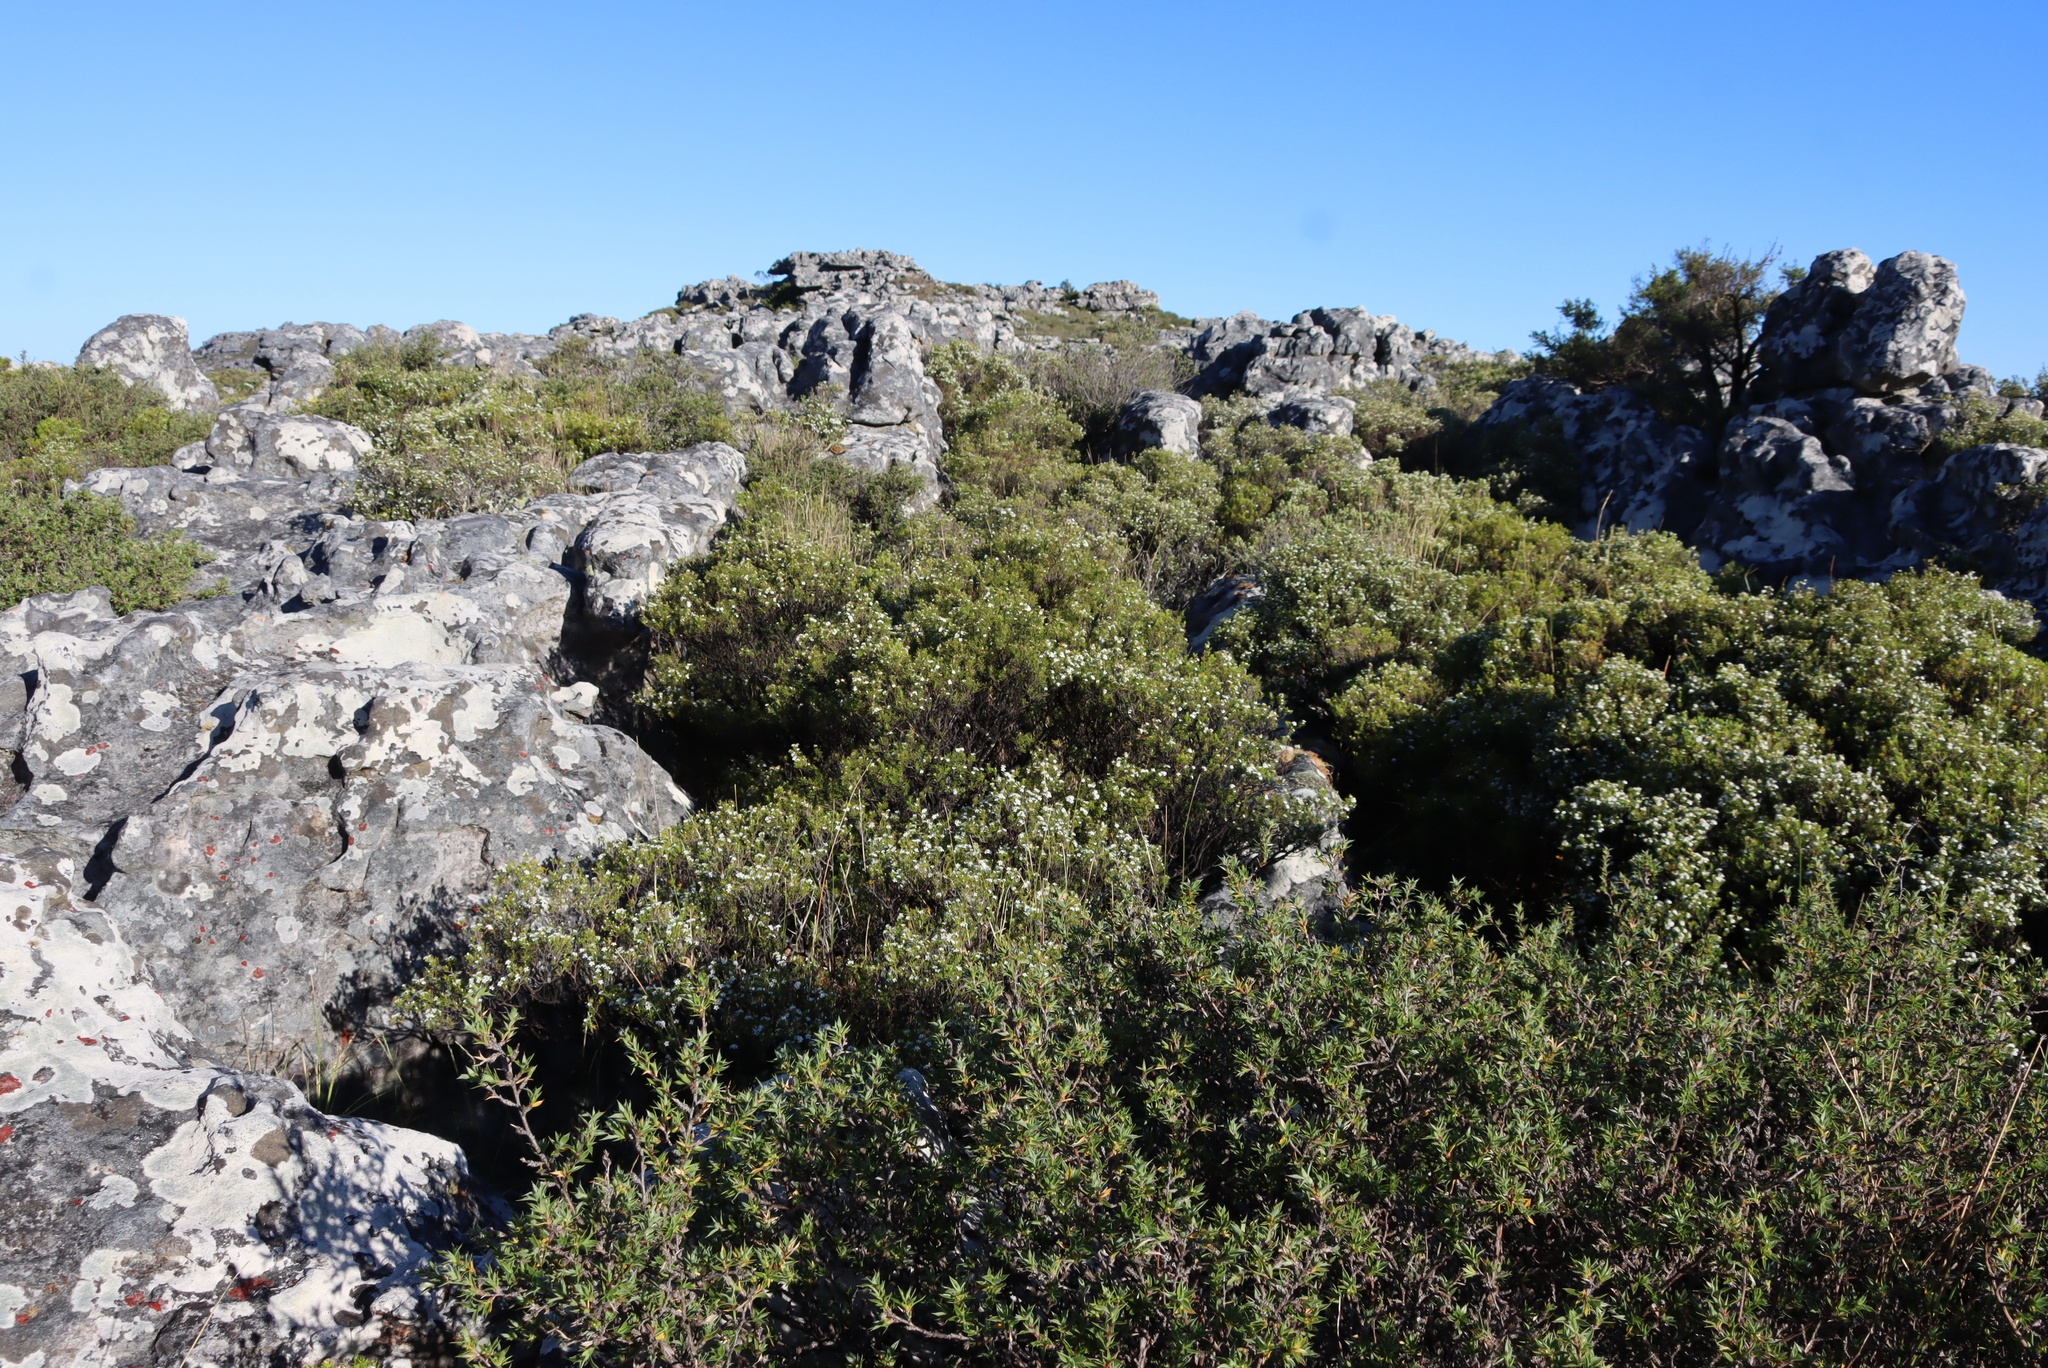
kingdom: Plantae
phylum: Tracheophyta
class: Magnoliopsida
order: Sapindales
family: Rutaceae
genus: Coleonema
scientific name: Coleonema album
